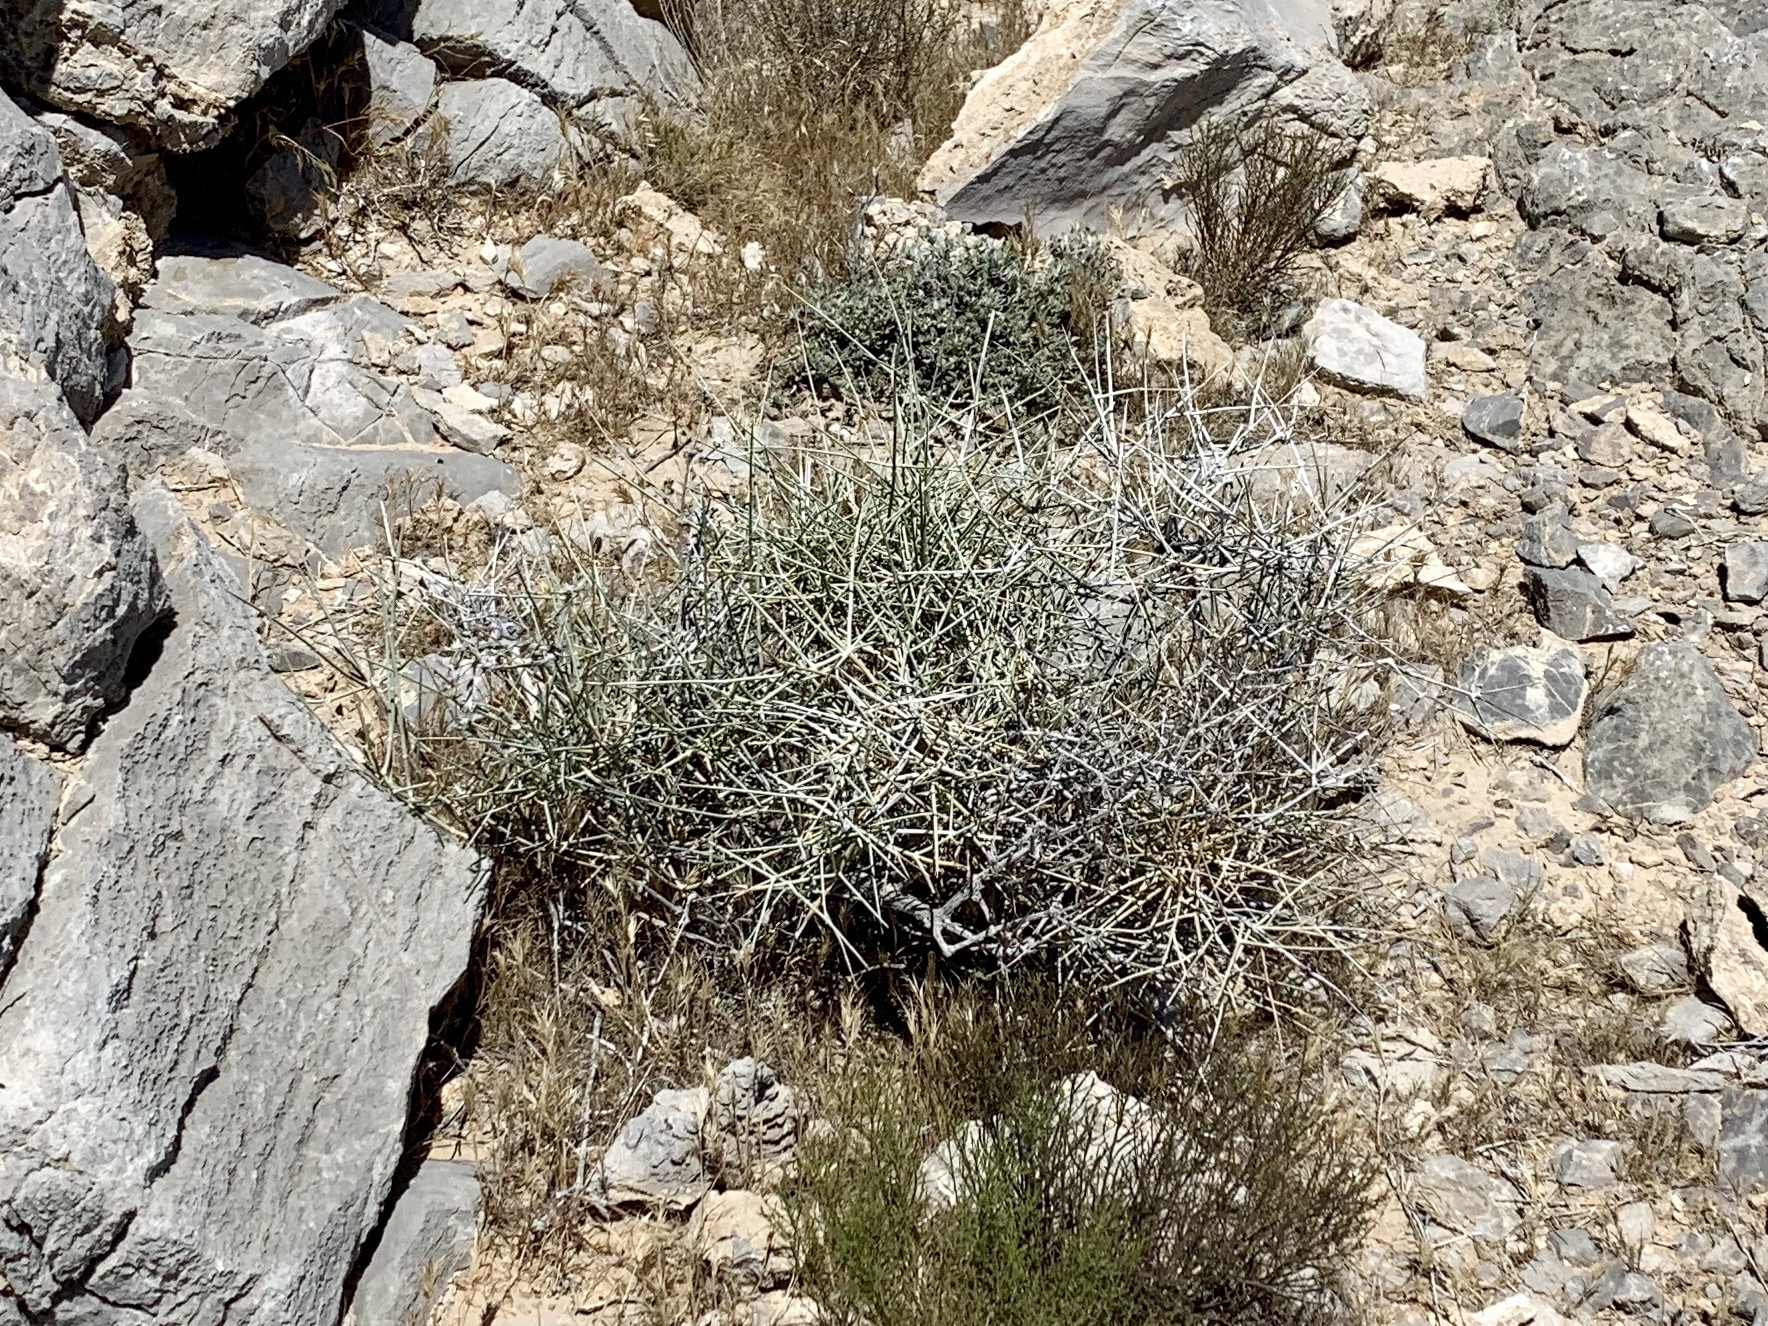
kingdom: Plantae
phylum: Tracheophyta
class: Gnetopsida
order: Ephedrales
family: Ephedraceae
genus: Ephedra
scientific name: Ephedra nevadensis
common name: Gray ephedra
